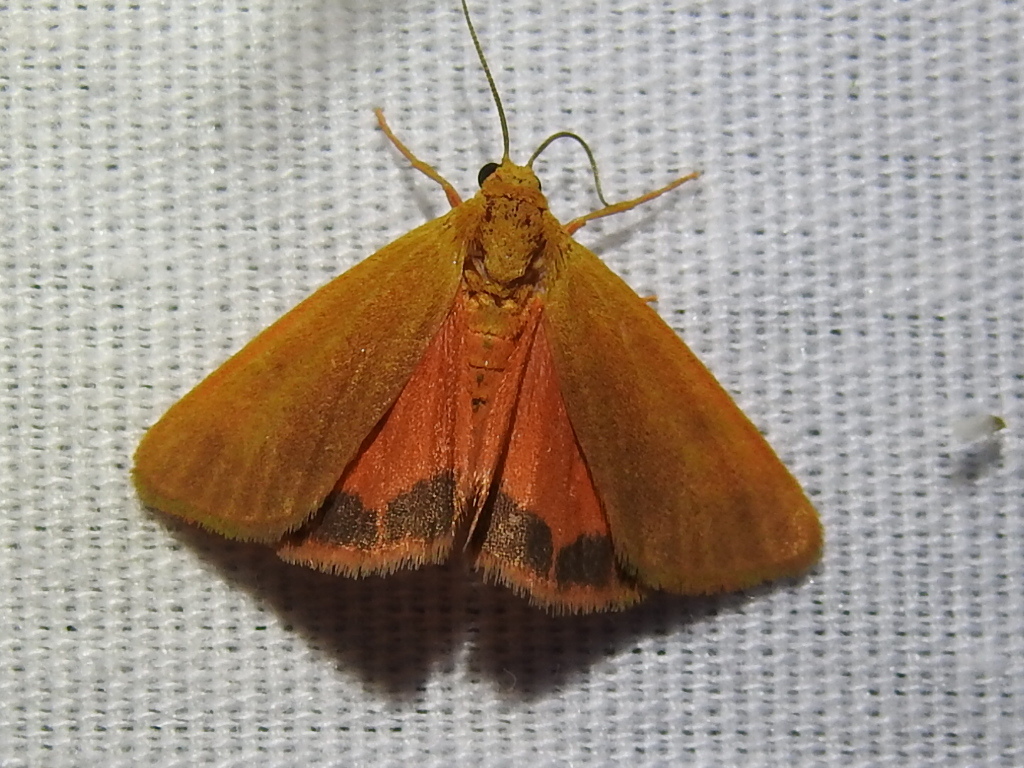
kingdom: Animalia
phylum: Arthropoda
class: Insecta
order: Lepidoptera
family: Erebidae
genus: Virbia
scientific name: Virbia aurantiaca
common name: Orange virbia moth
